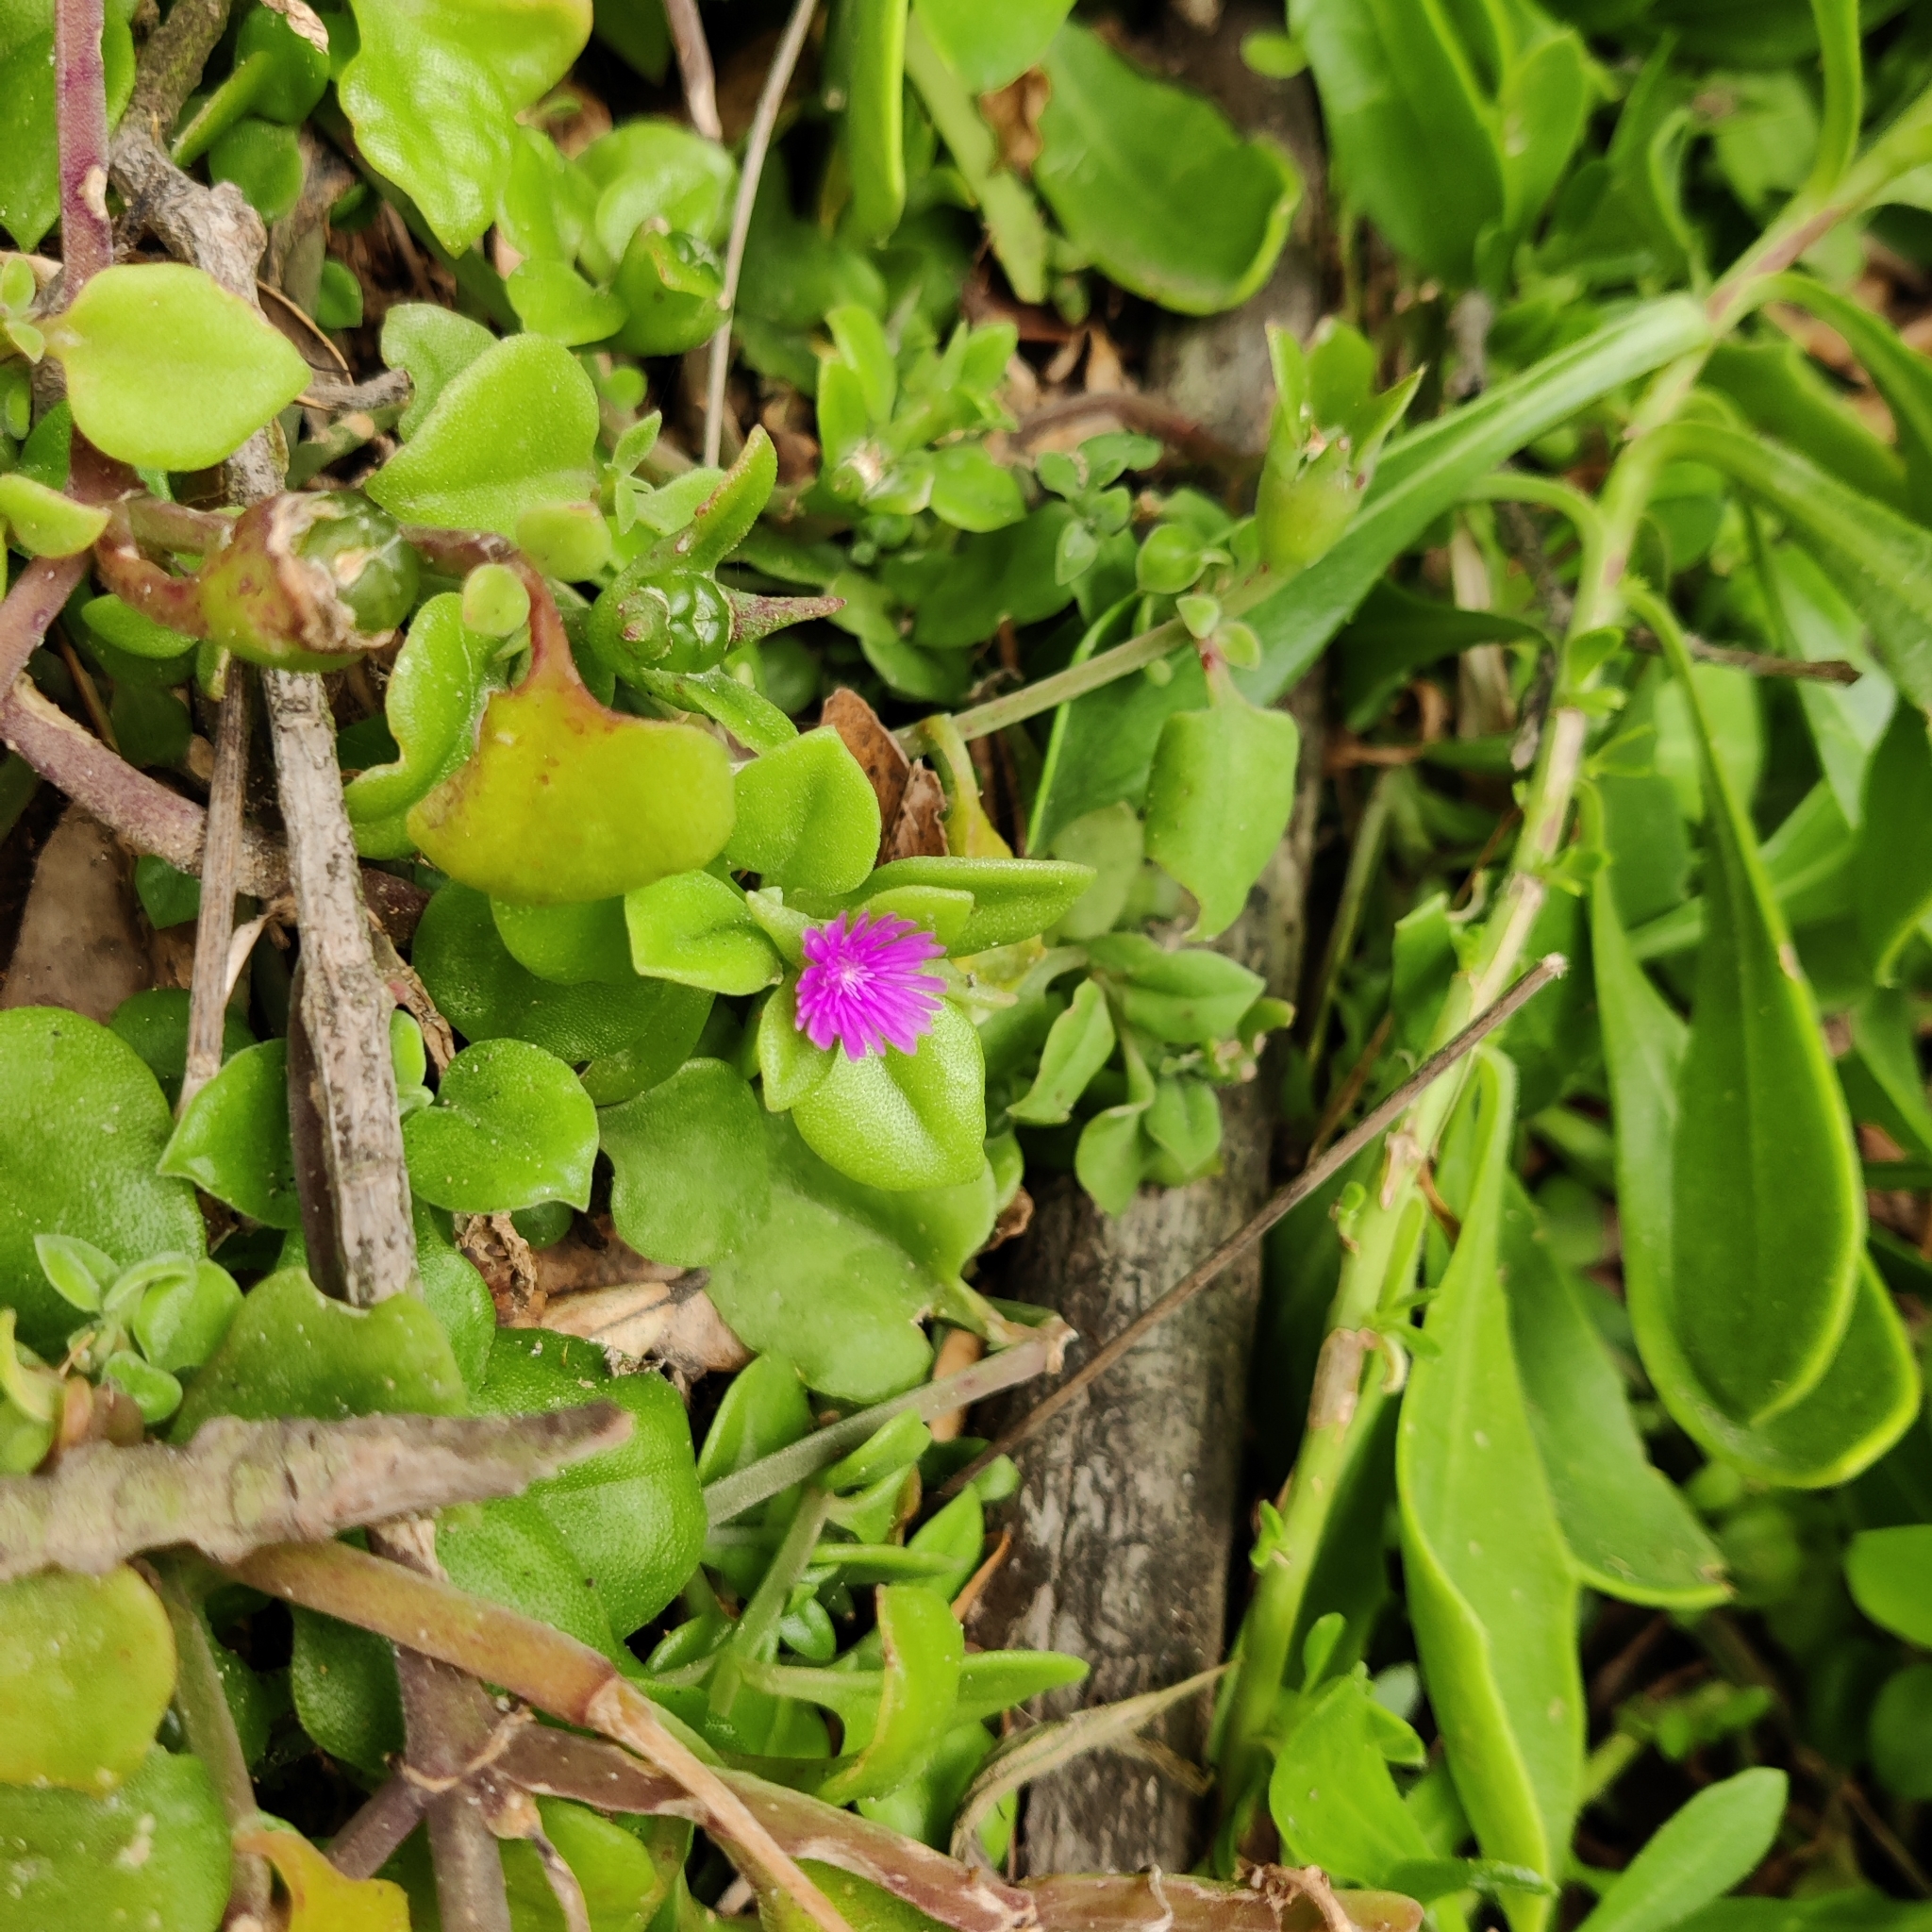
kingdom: Plantae
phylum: Tracheophyta
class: Magnoliopsida
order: Caryophyllales
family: Aizoaceae
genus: Mesembryanthemum
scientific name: Mesembryanthemum cordifolium
